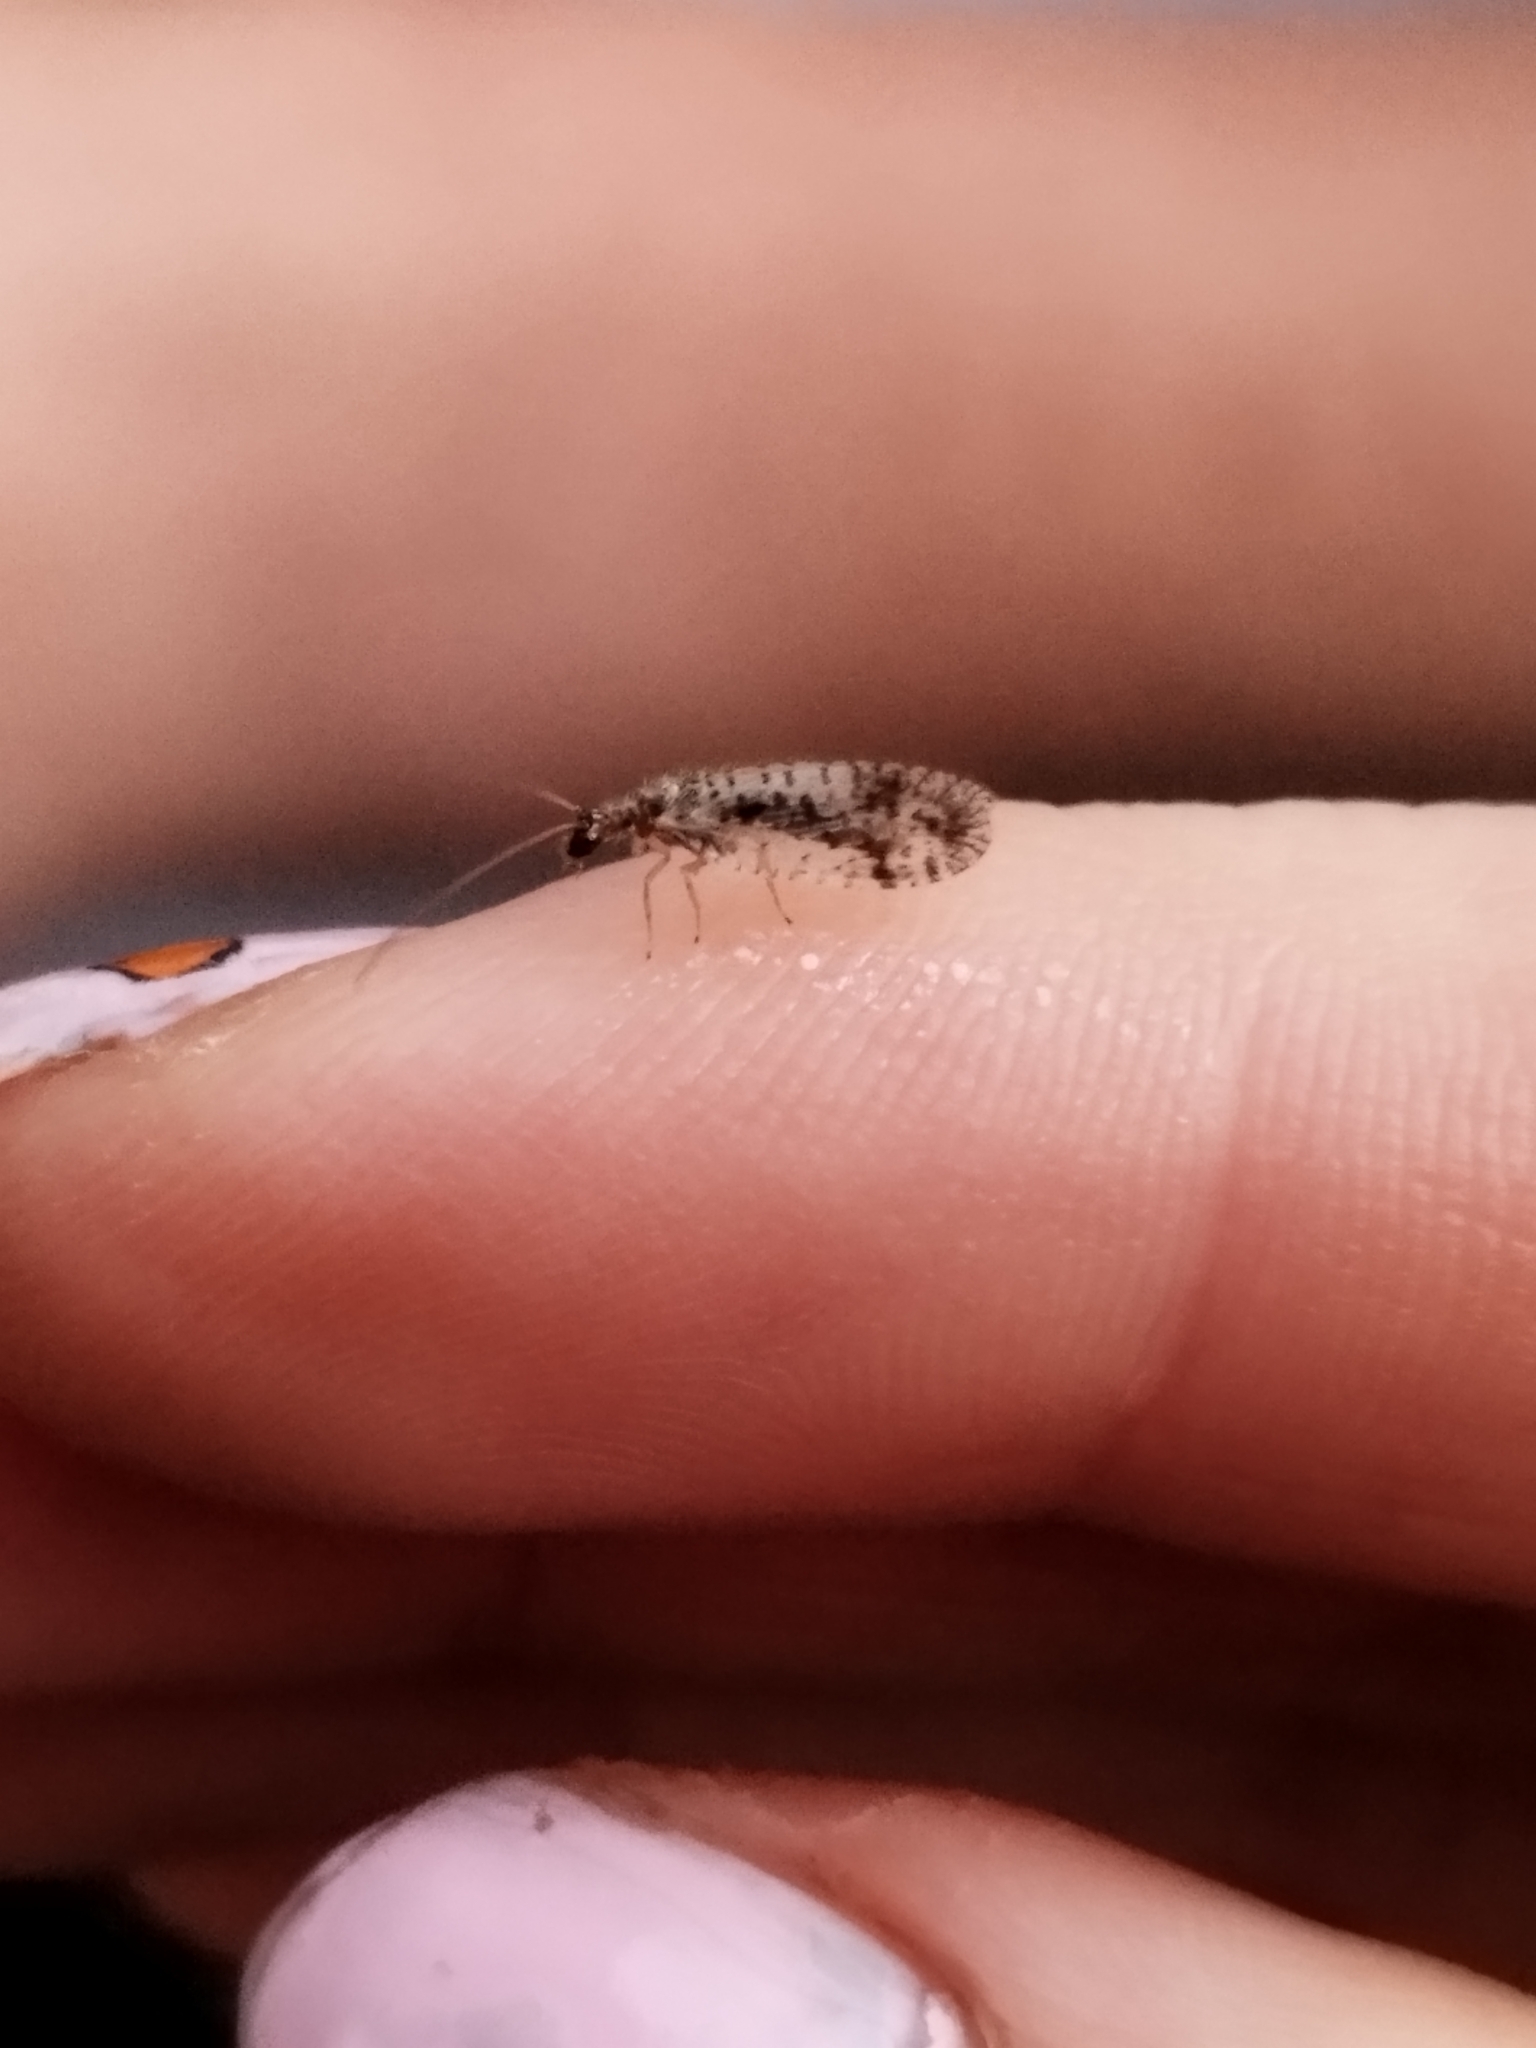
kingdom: Animalia
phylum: Arthropoda
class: Insecta
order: Neuroptera
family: Hemerobiidae
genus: Micromus
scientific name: Micromus variegatus
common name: Brown lacewing
